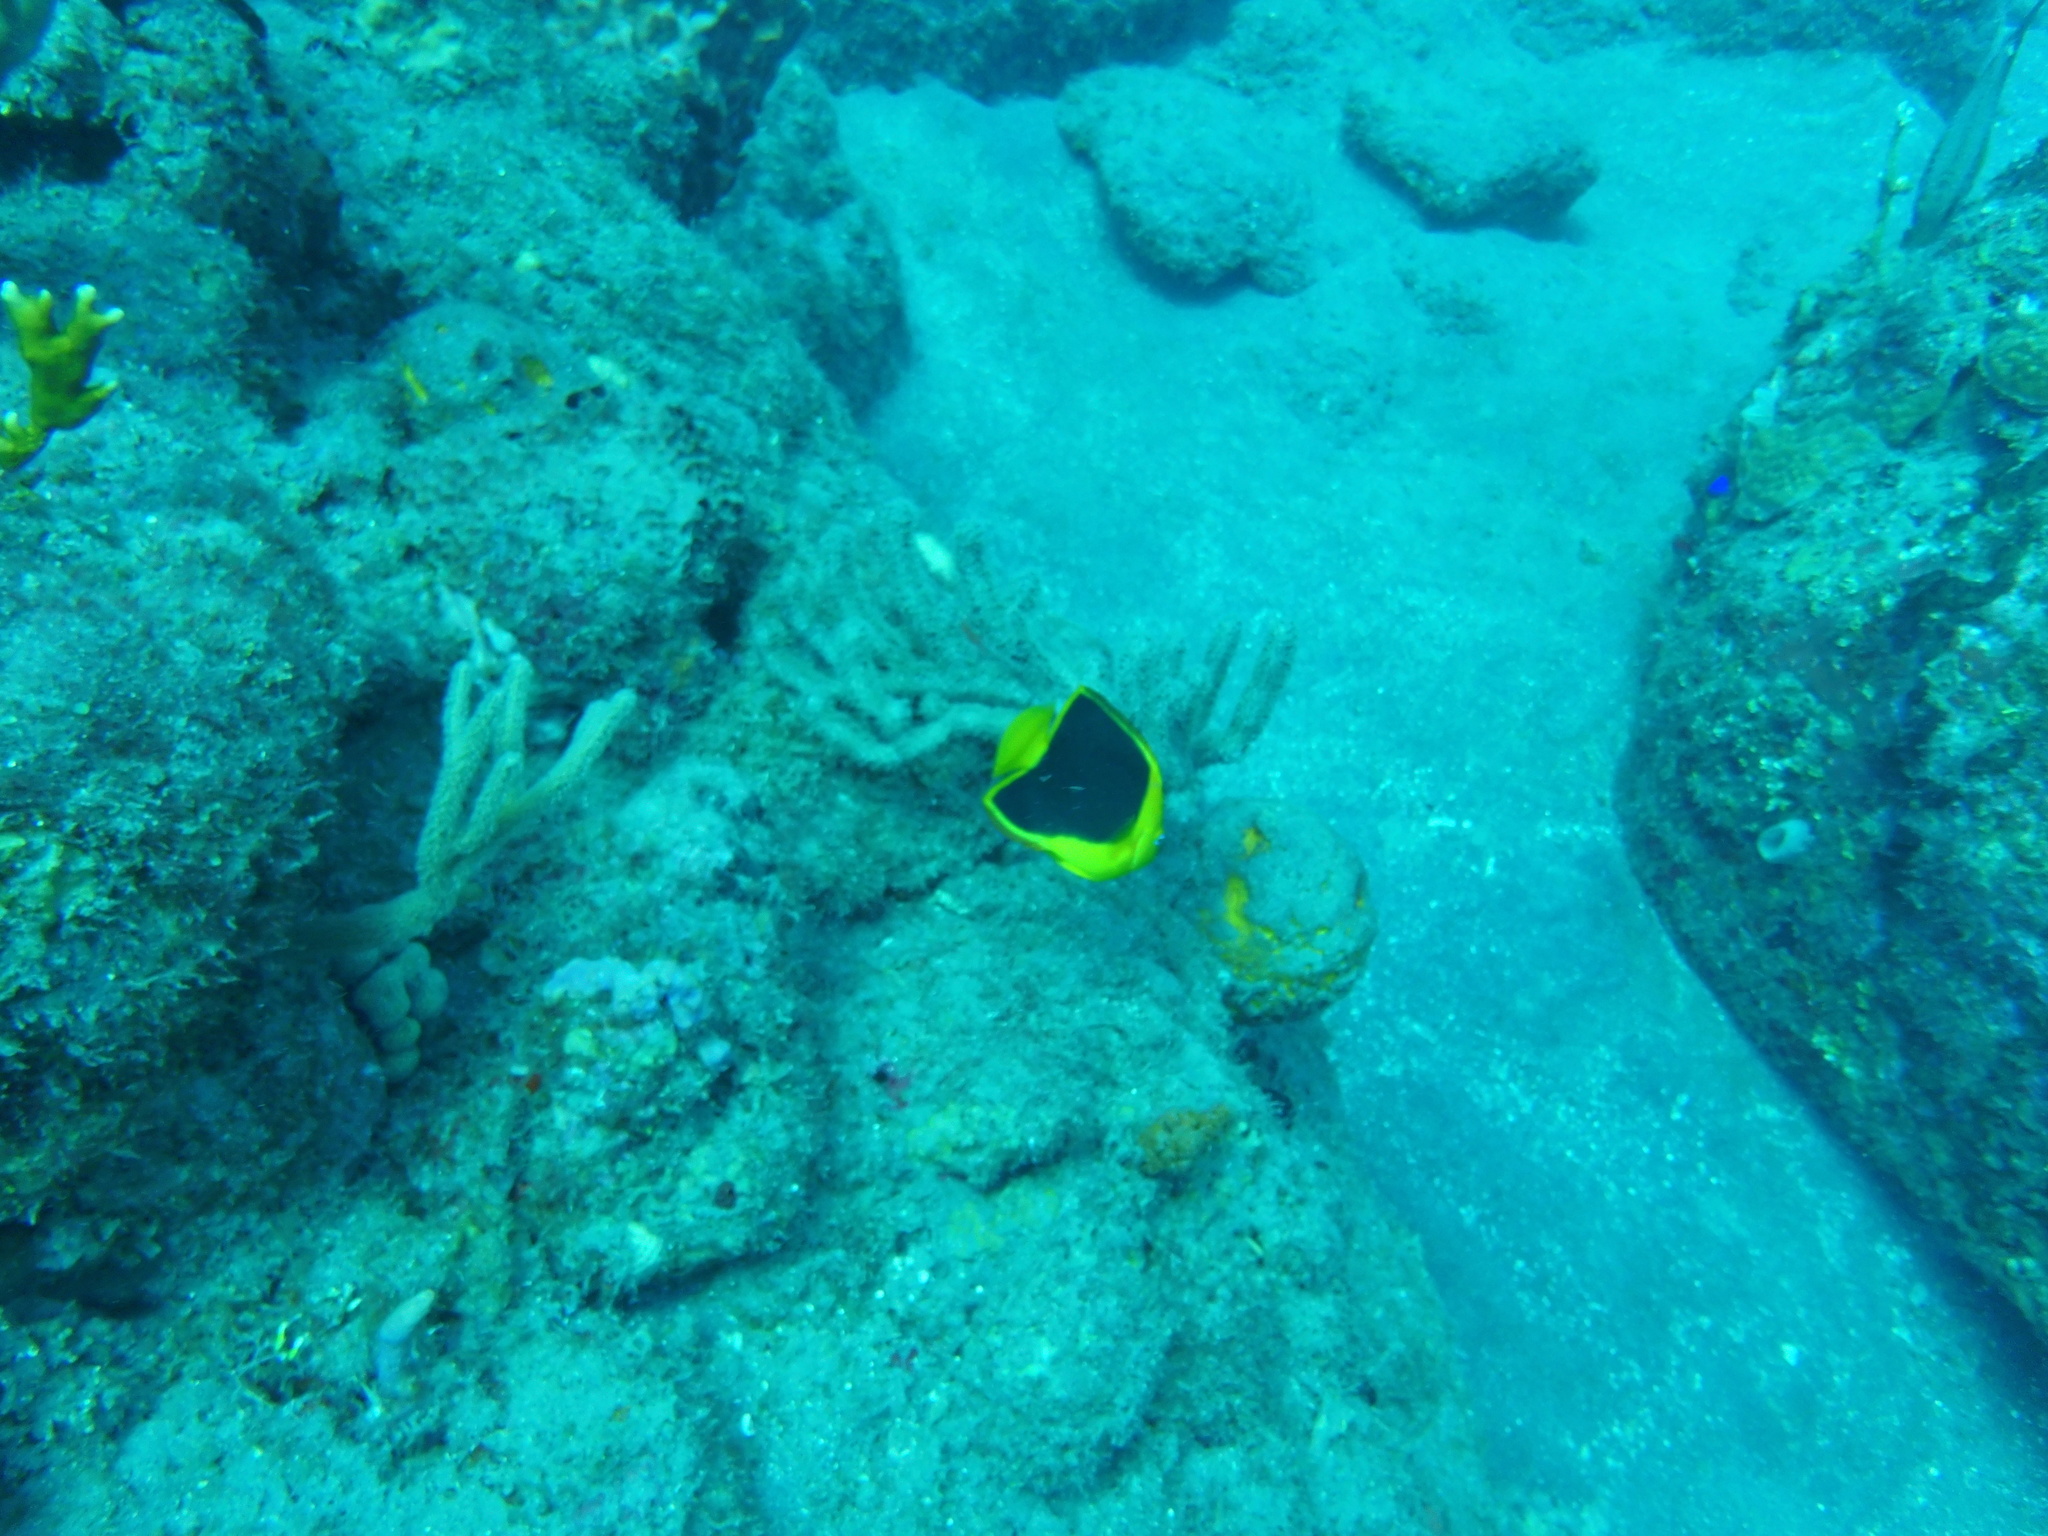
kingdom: Animalia
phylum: Chordata
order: Perciformes
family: Pomacanthidae
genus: Holacanthus
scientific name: Holacanthus tricolor
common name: Rock beauty
